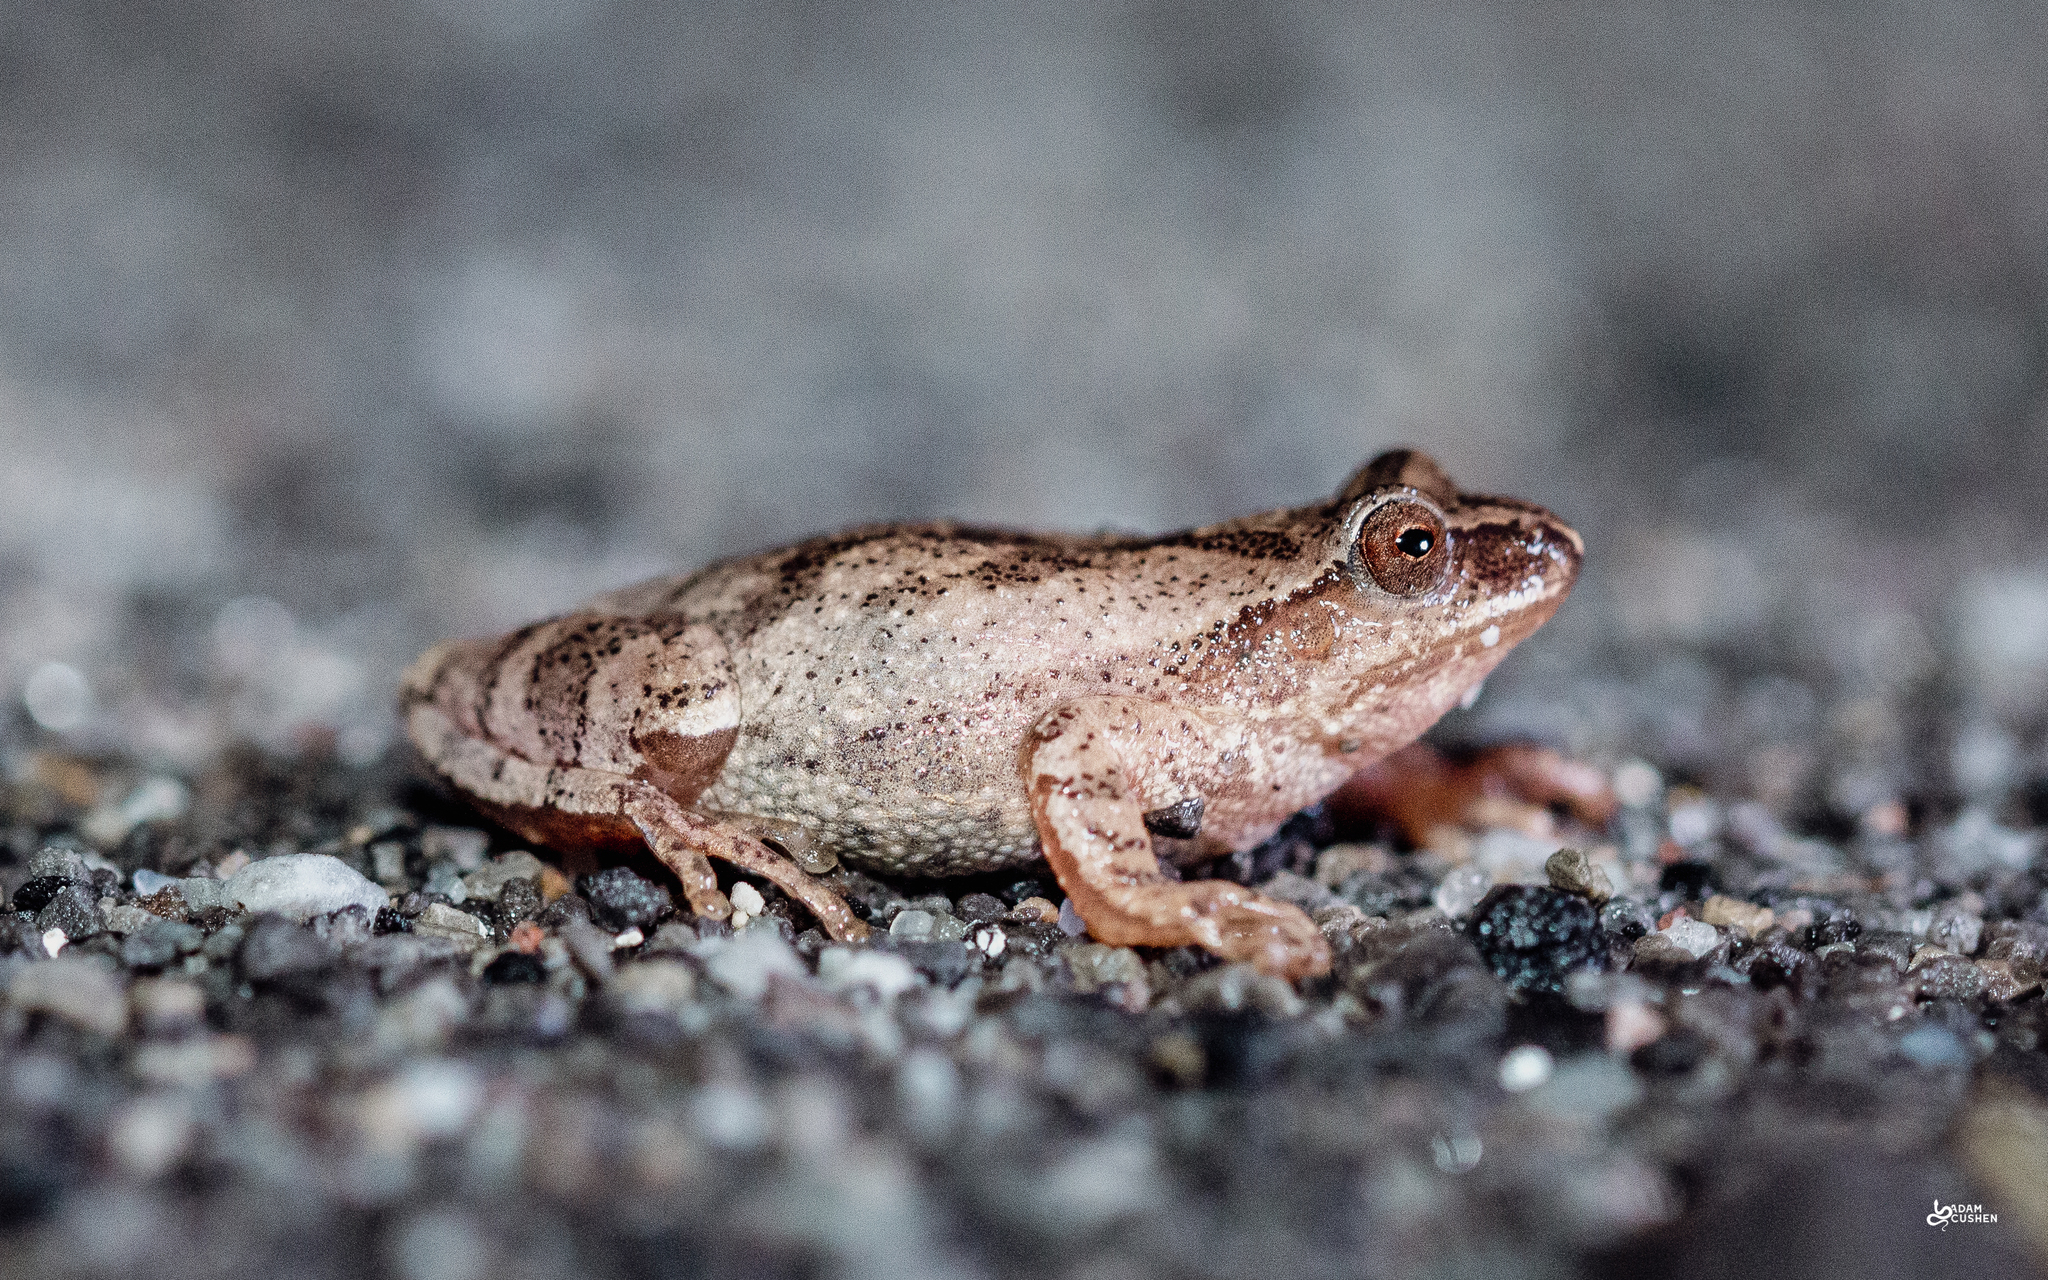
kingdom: Animalia
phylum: Chordata
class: Amphibia
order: Anura
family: Hylidae
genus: Pseudacris
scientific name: Pseudacris crucifer
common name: Spring peeper
